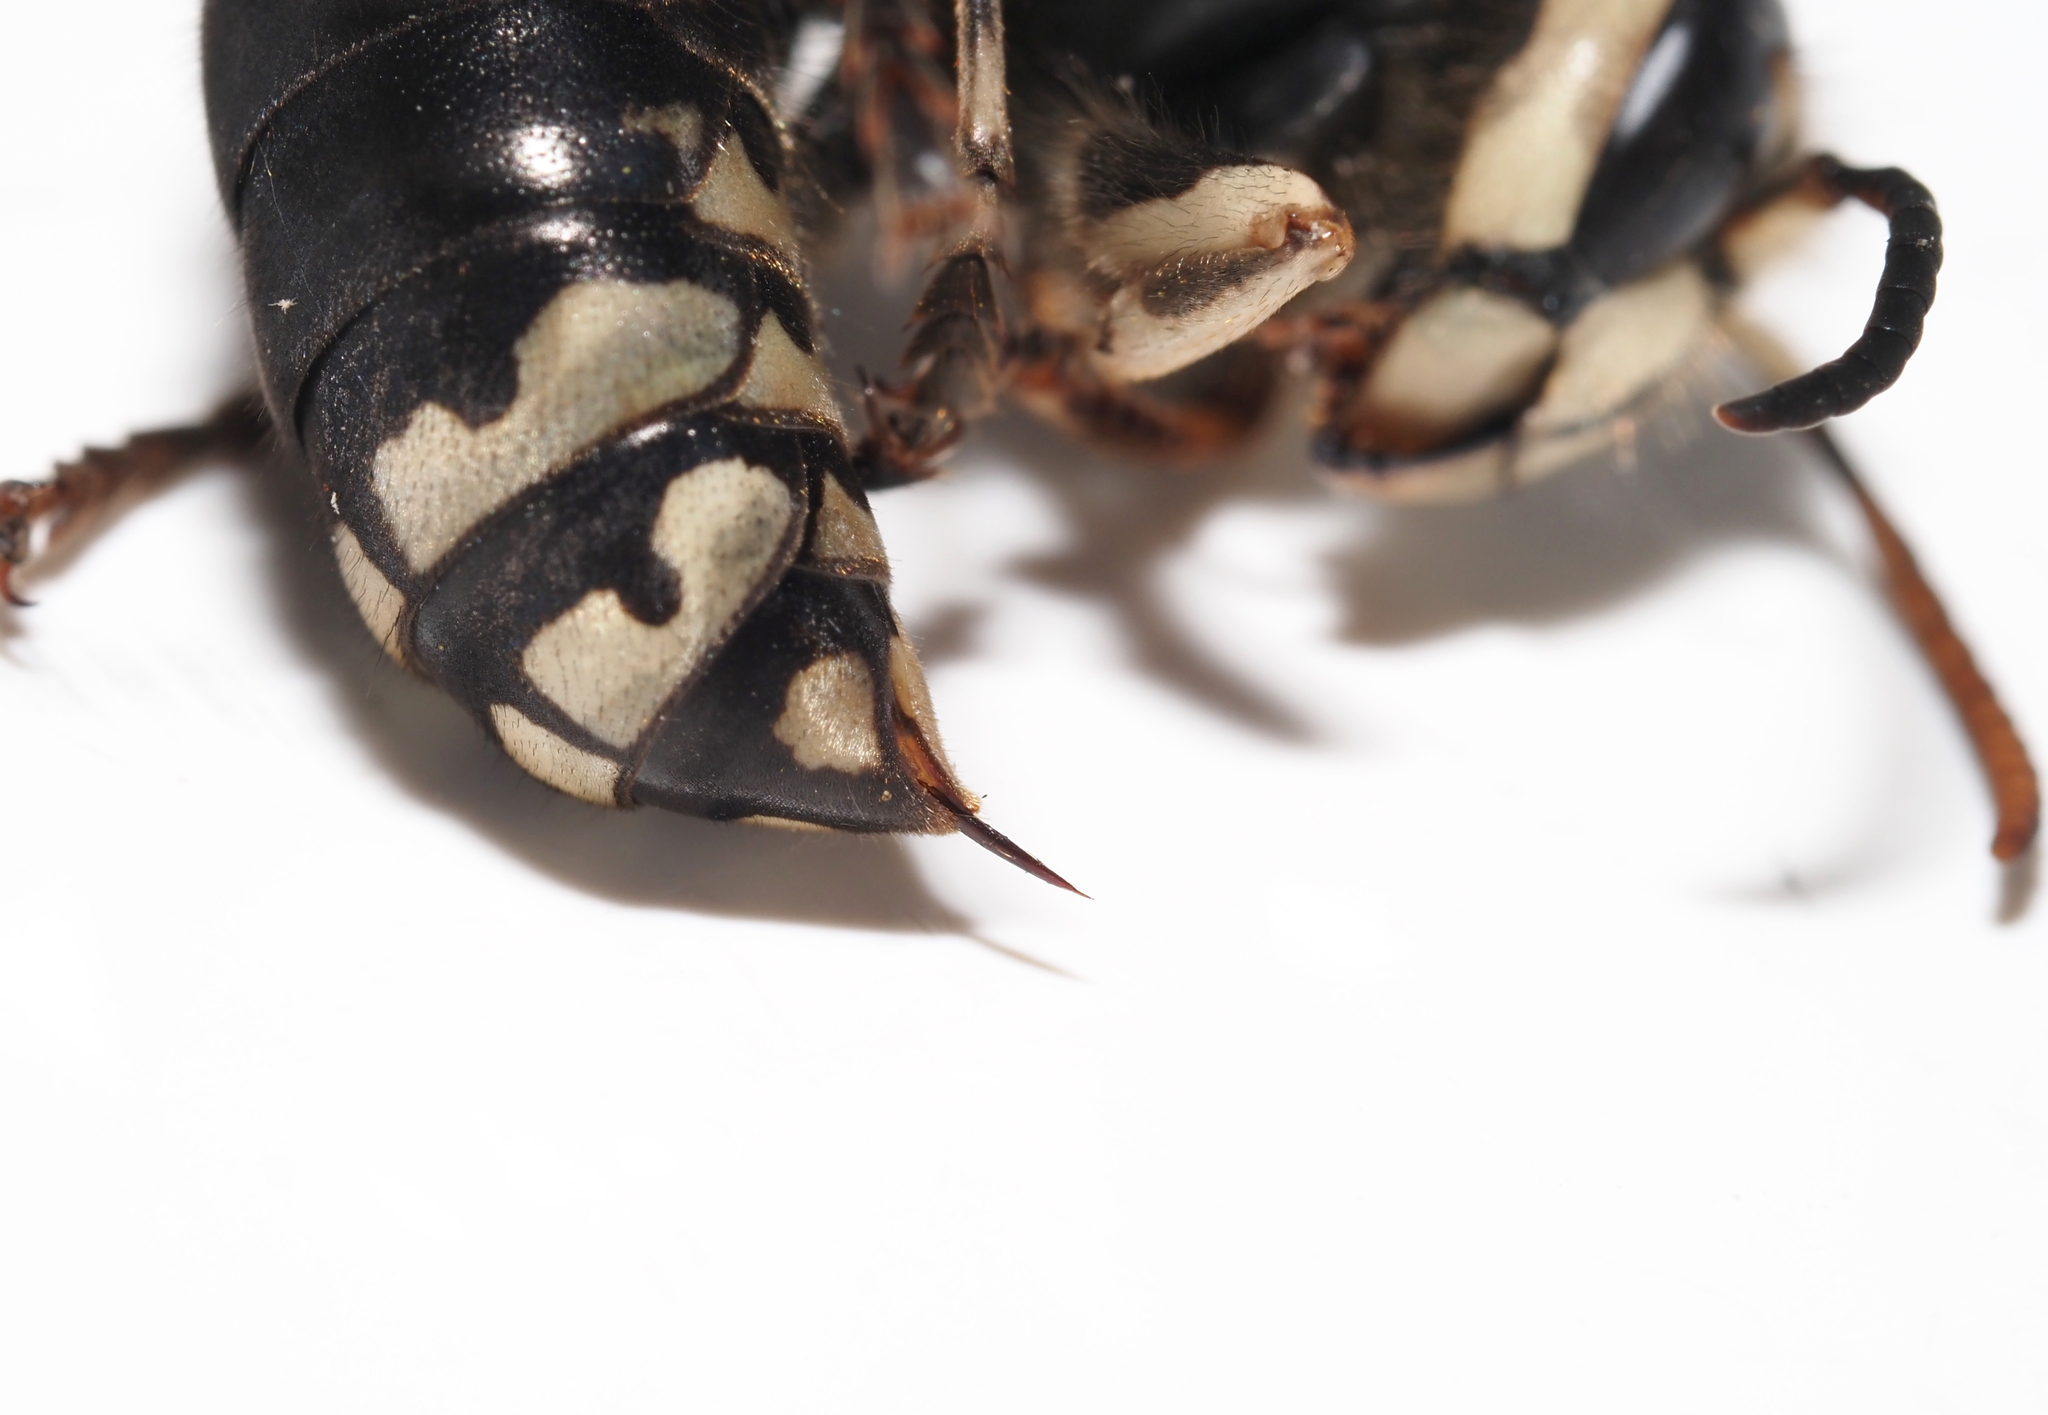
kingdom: Animalia
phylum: Arthropoda
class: Insecta
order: Hymenoptera
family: Vespidae
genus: Dolichovespula
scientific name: Dolichovespula maculata
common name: Bald-faced hornet
